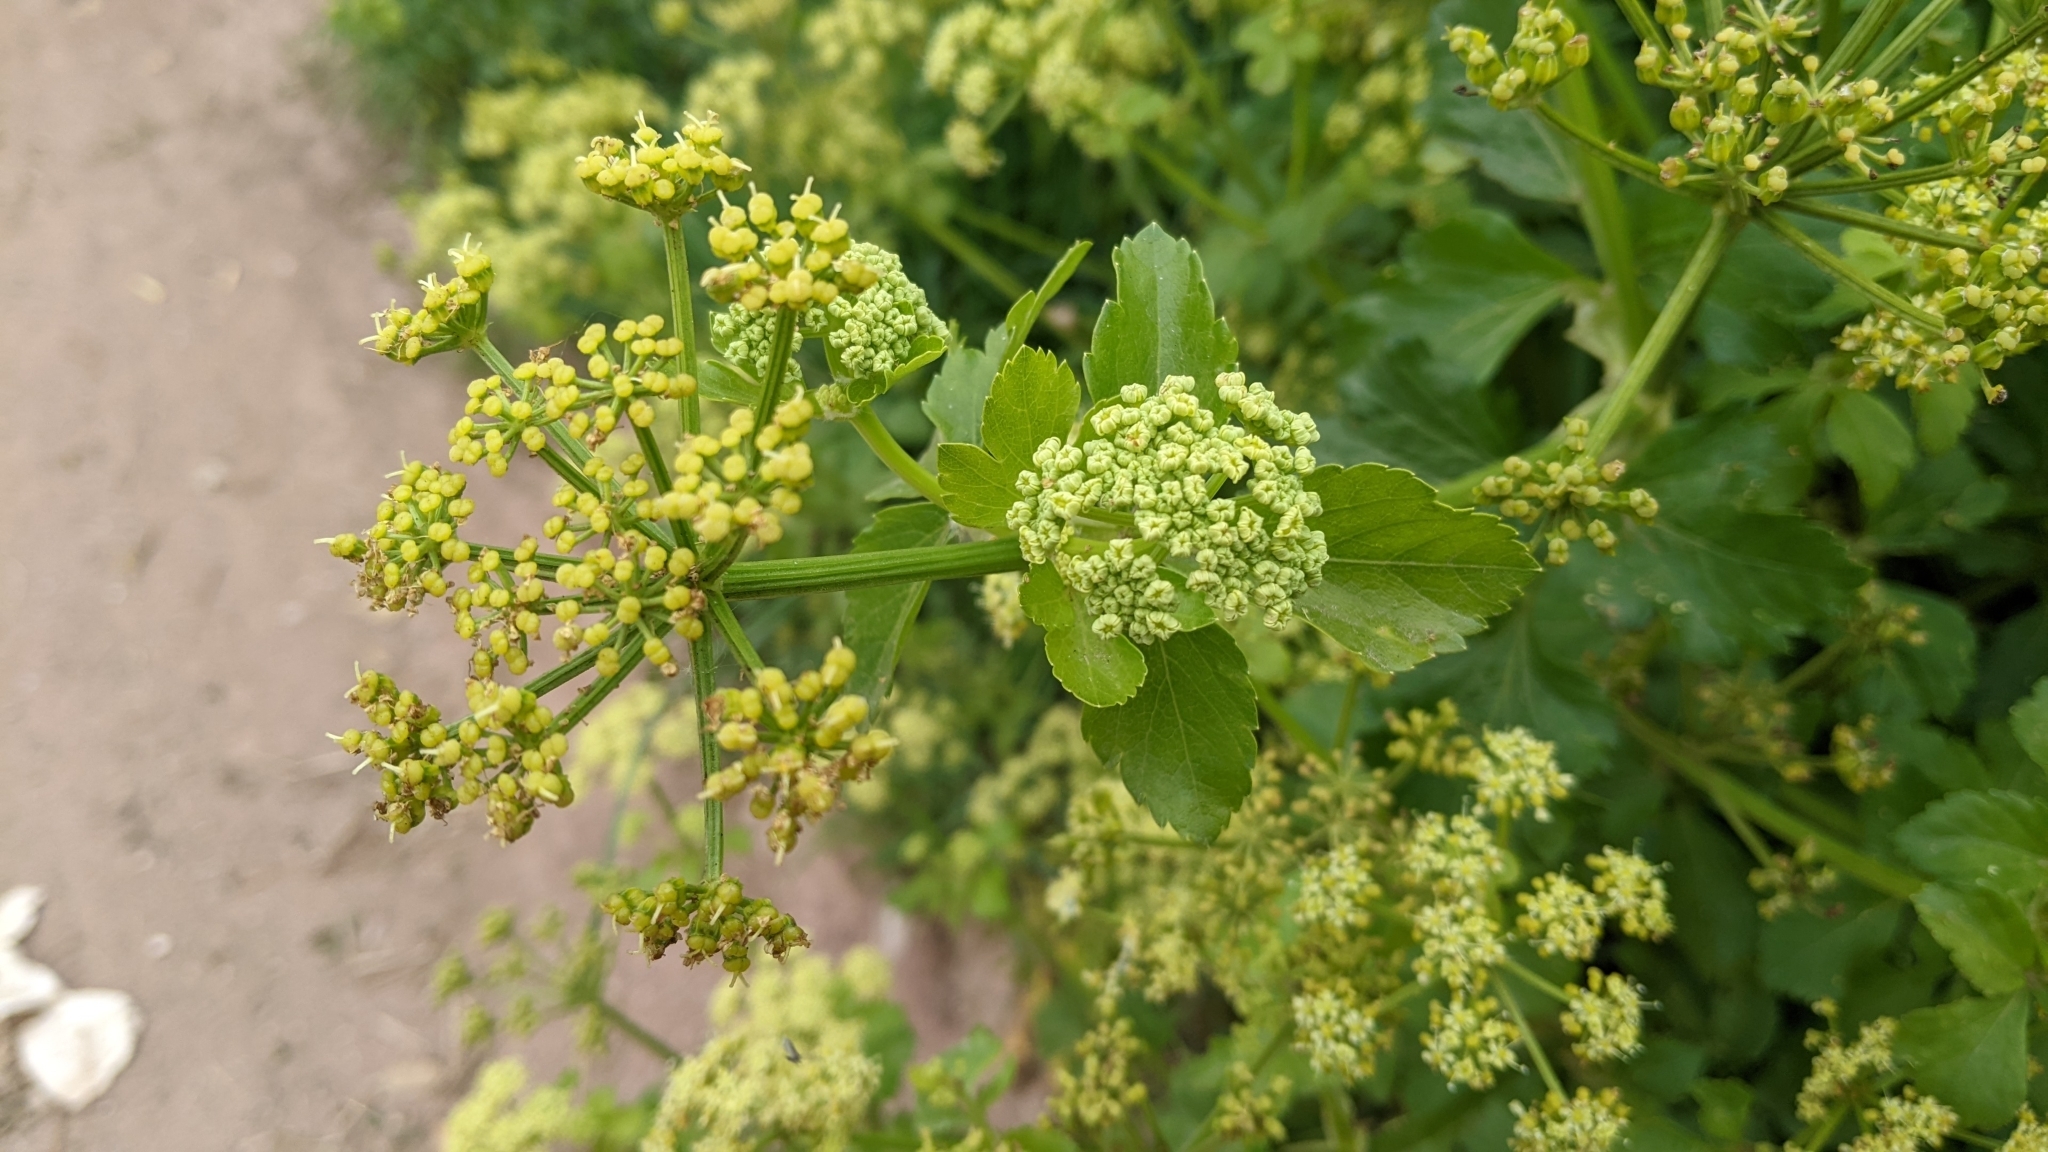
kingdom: Plantae
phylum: Tracheophyta
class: Magnoliopsida
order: Apiales
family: Apiaceae
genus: Smyrnium
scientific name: Smyrnium olusatrum
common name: Alexanders
